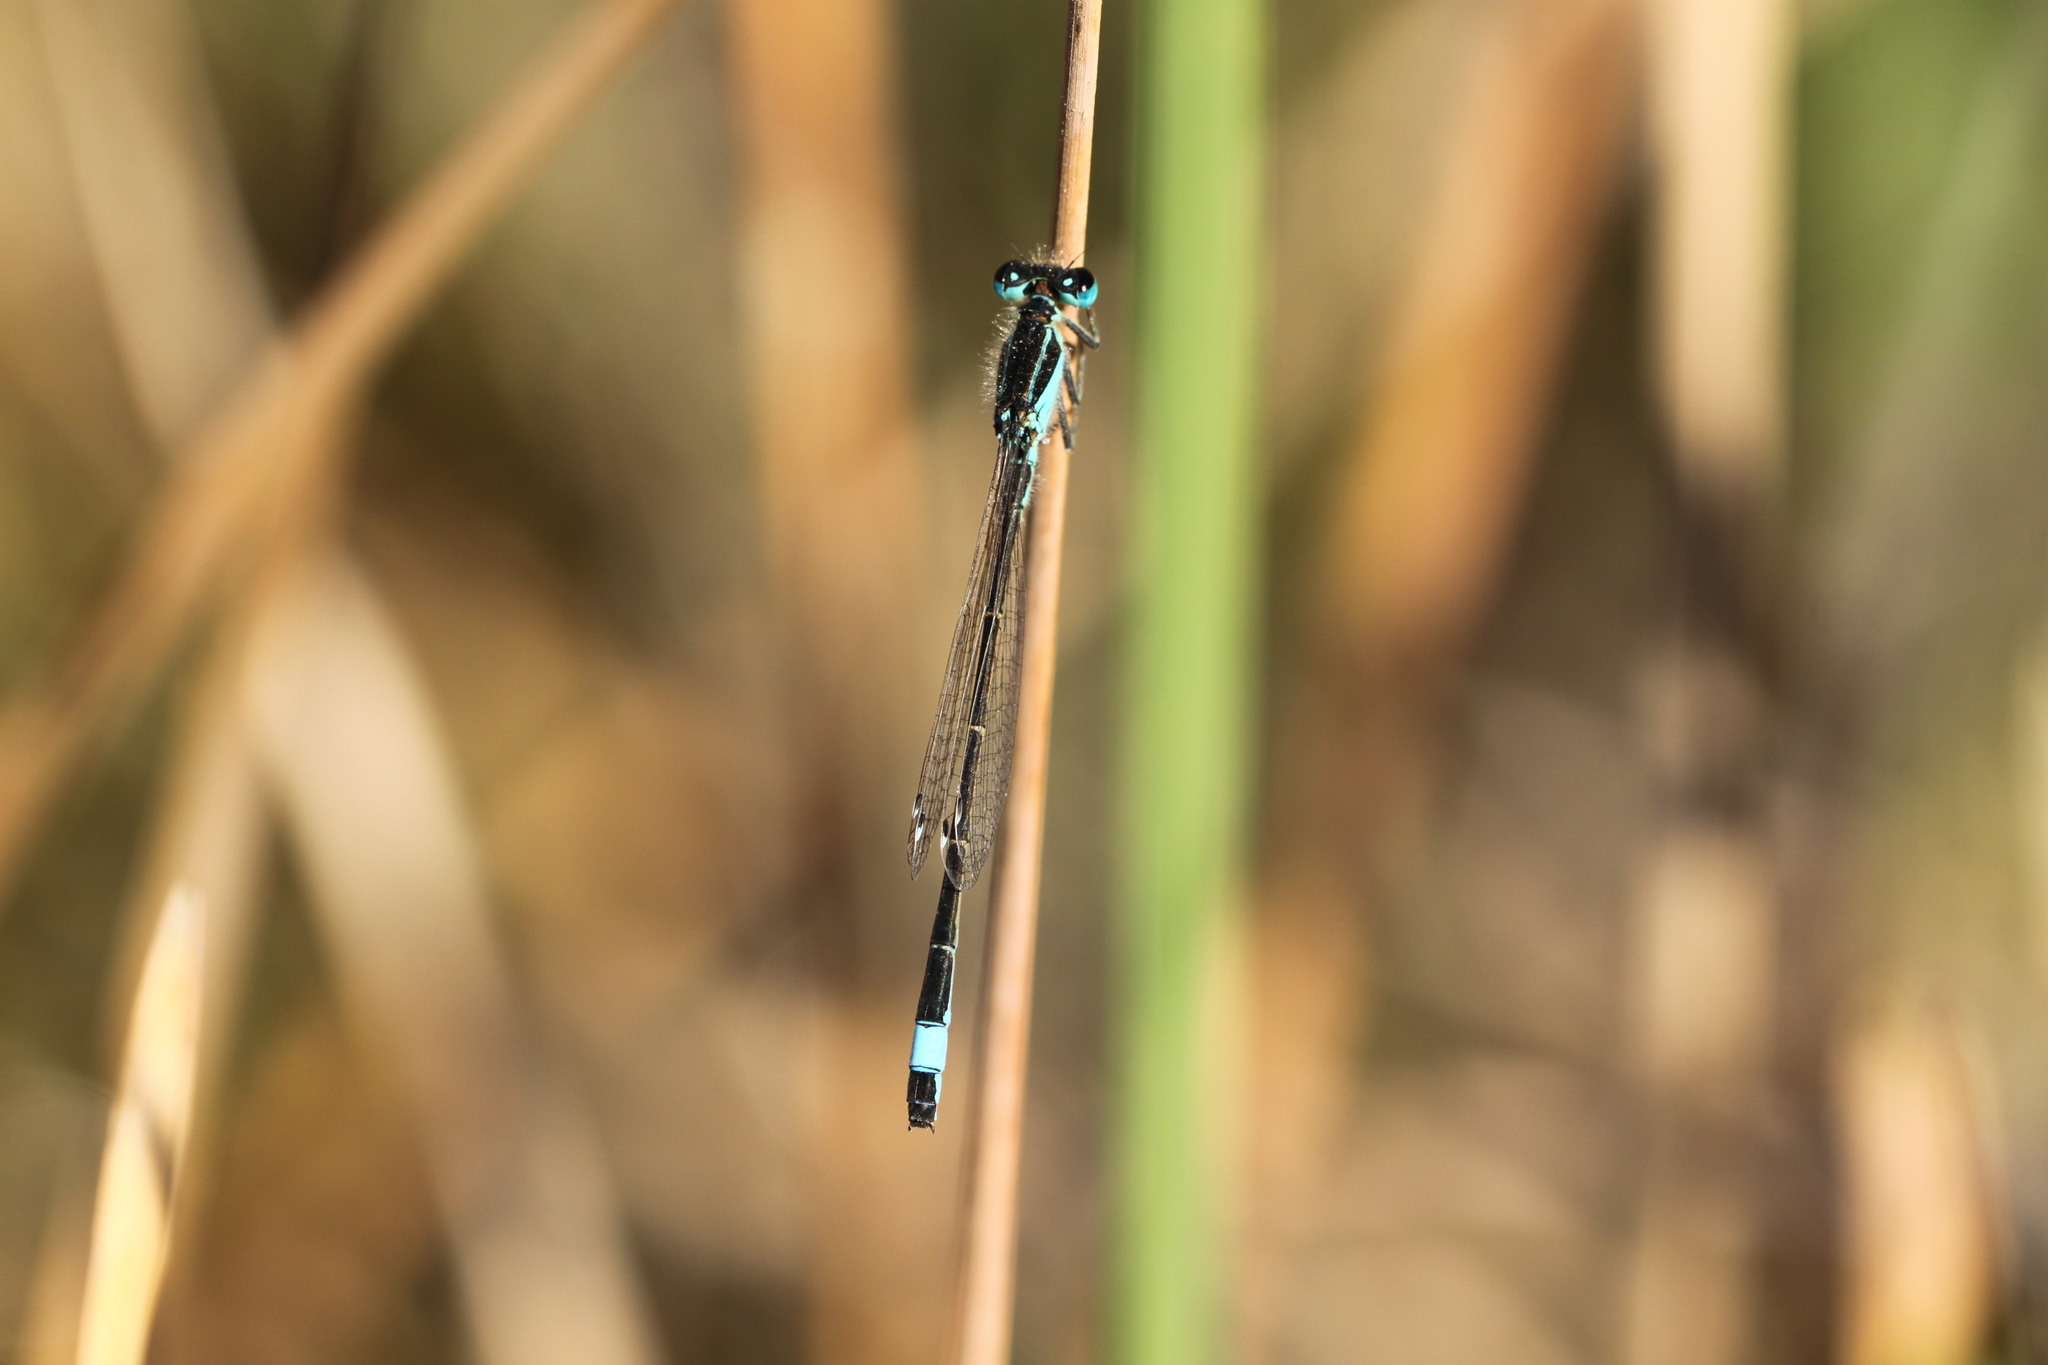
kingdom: Animalia
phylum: Arthropoda
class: Insecta
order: Odonata
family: Coenagrionidae
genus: Ischnura
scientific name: Ischnura elegans
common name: Blue-tailed damselfly
